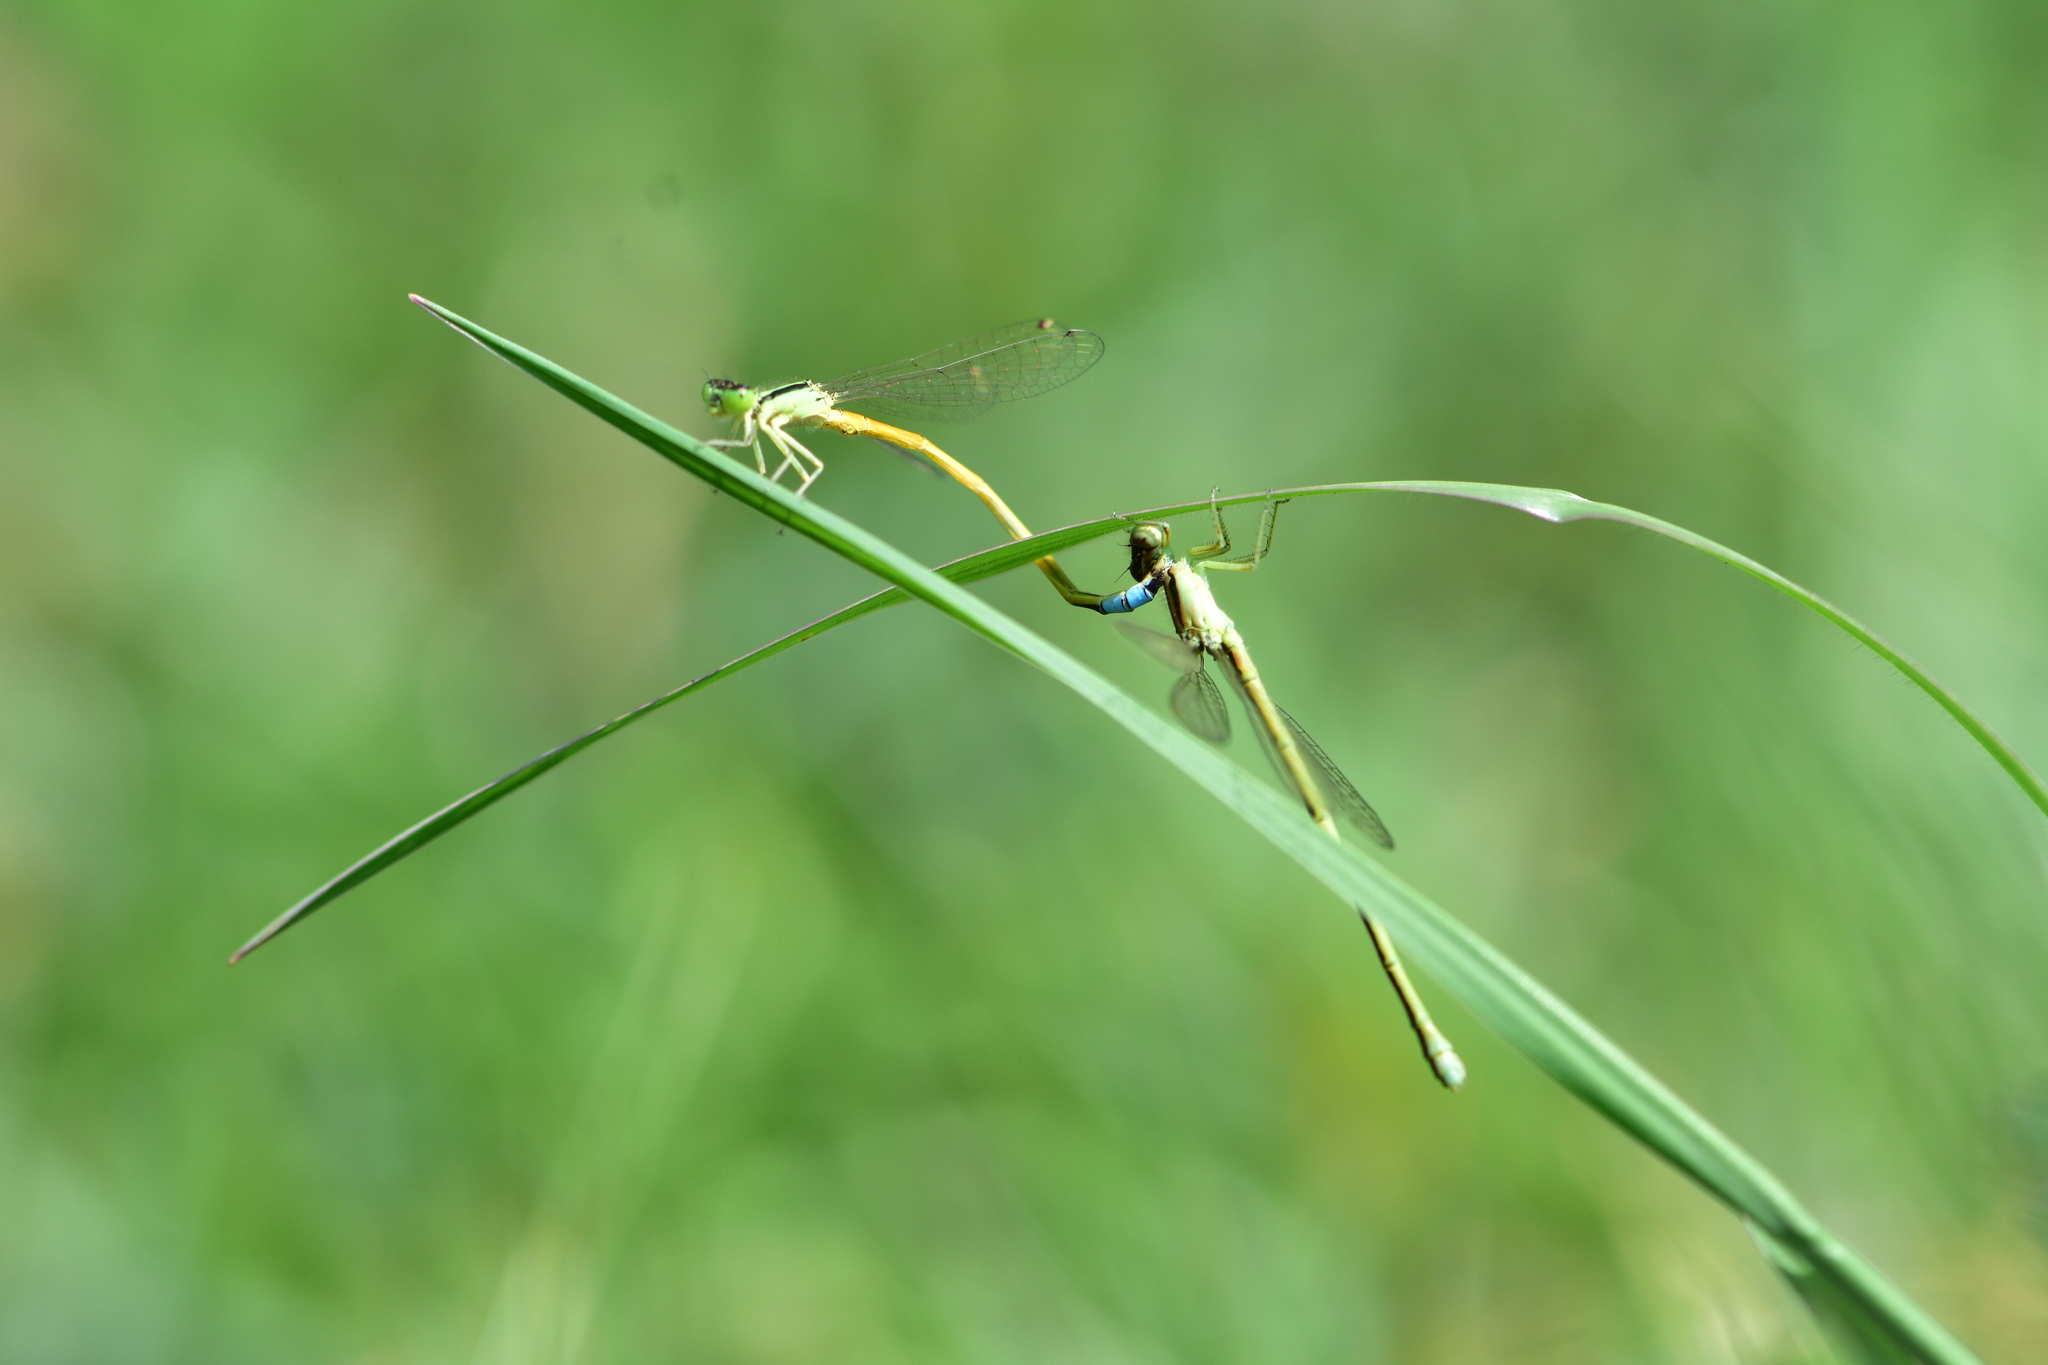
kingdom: Animalia
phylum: Arthropoda
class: Insecta
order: Odonata
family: Coenagrionidae
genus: Ischnura
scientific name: Ischnura rubilio
